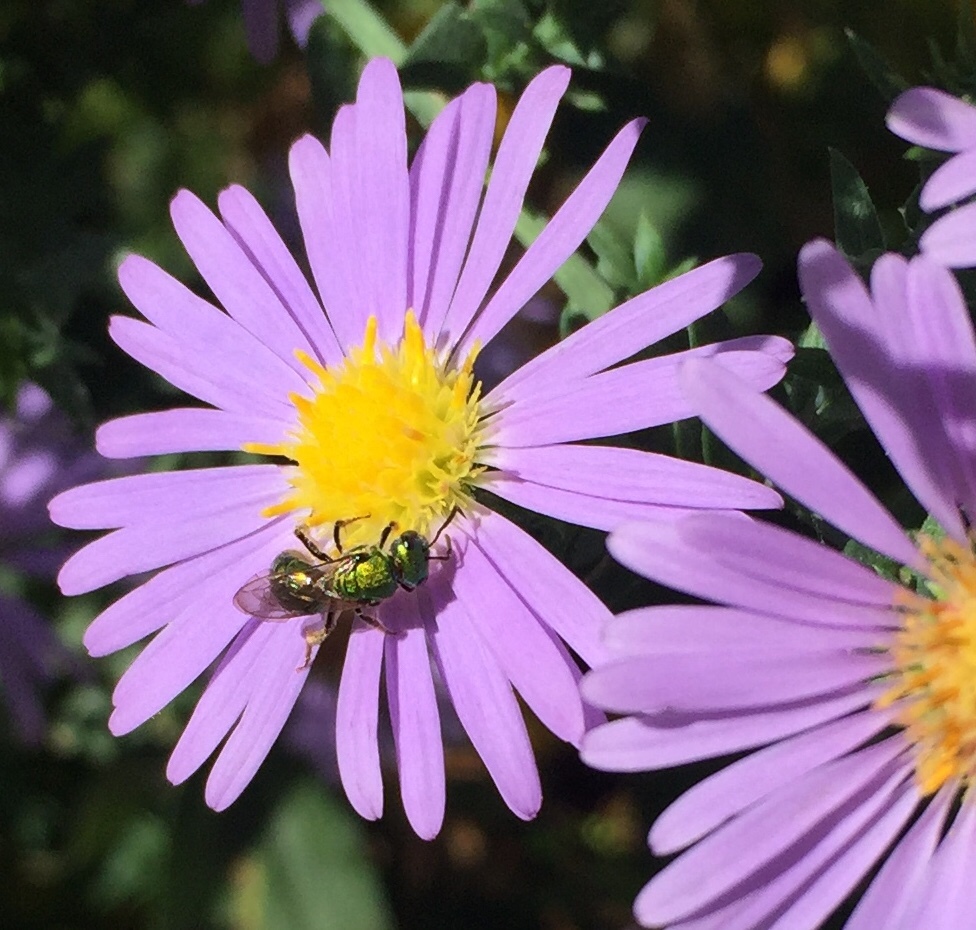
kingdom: Animalia
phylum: Arthropoda
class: Insecta
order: Hymenoptera
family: Halictidae
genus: Augochlora
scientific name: Augochlora pura
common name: Pure green sweat bee
